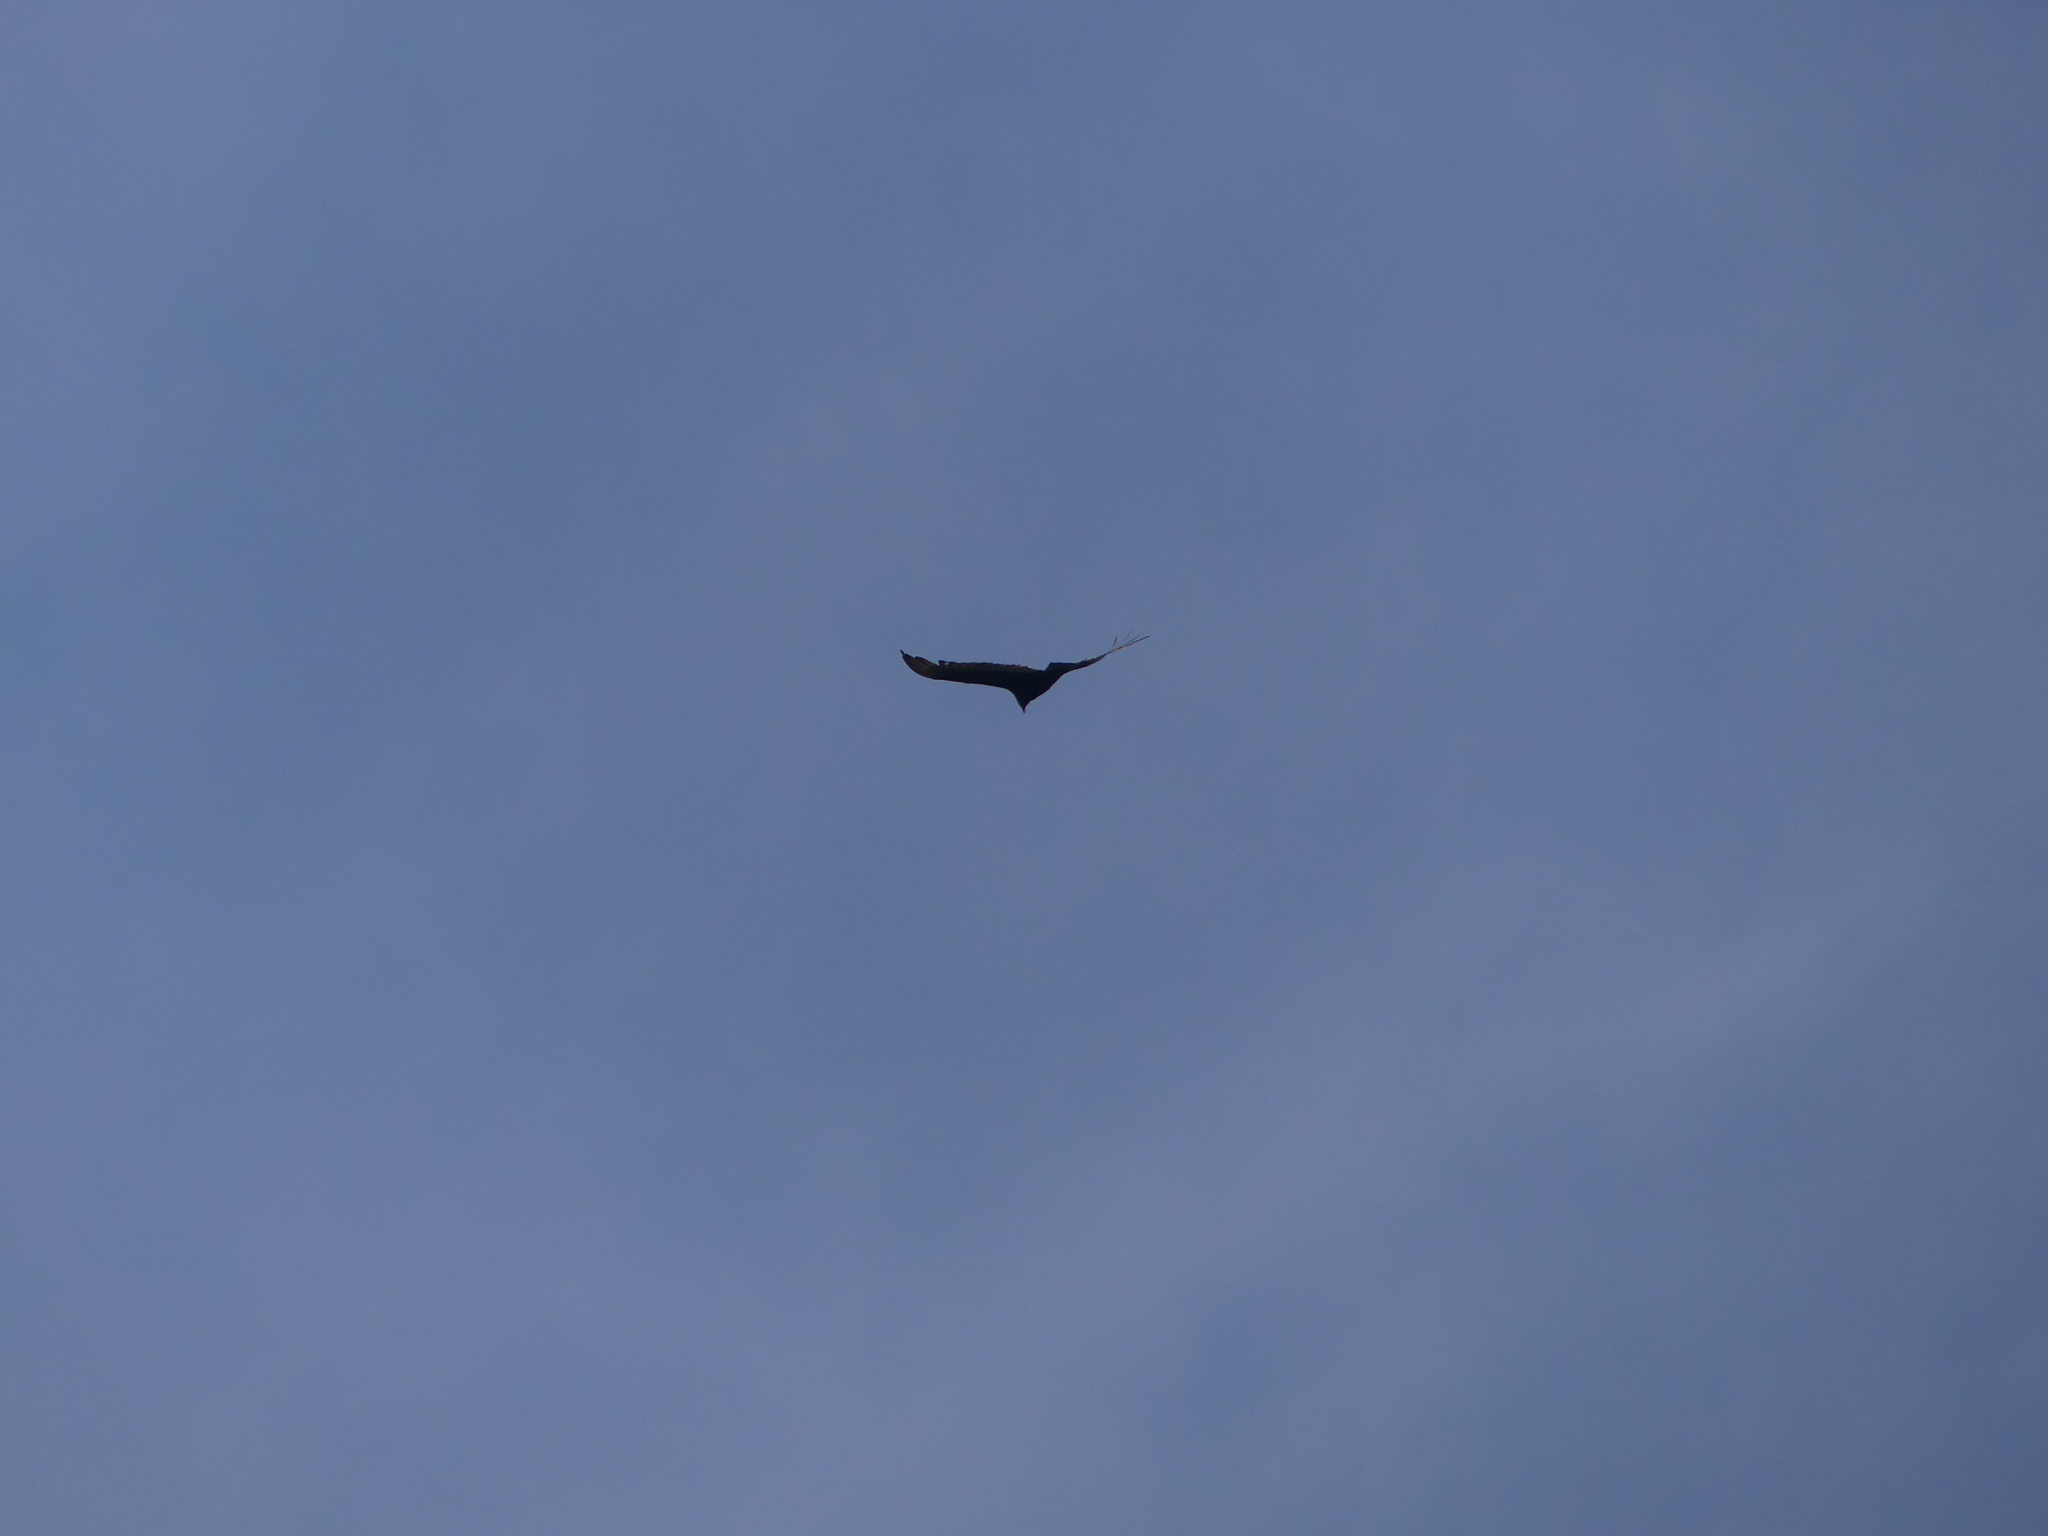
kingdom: Animalia
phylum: Chordata
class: Aves
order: Accipitriformes
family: Cathartidae
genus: Cathartes
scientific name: Cathartes aura
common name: Turkey vulture
